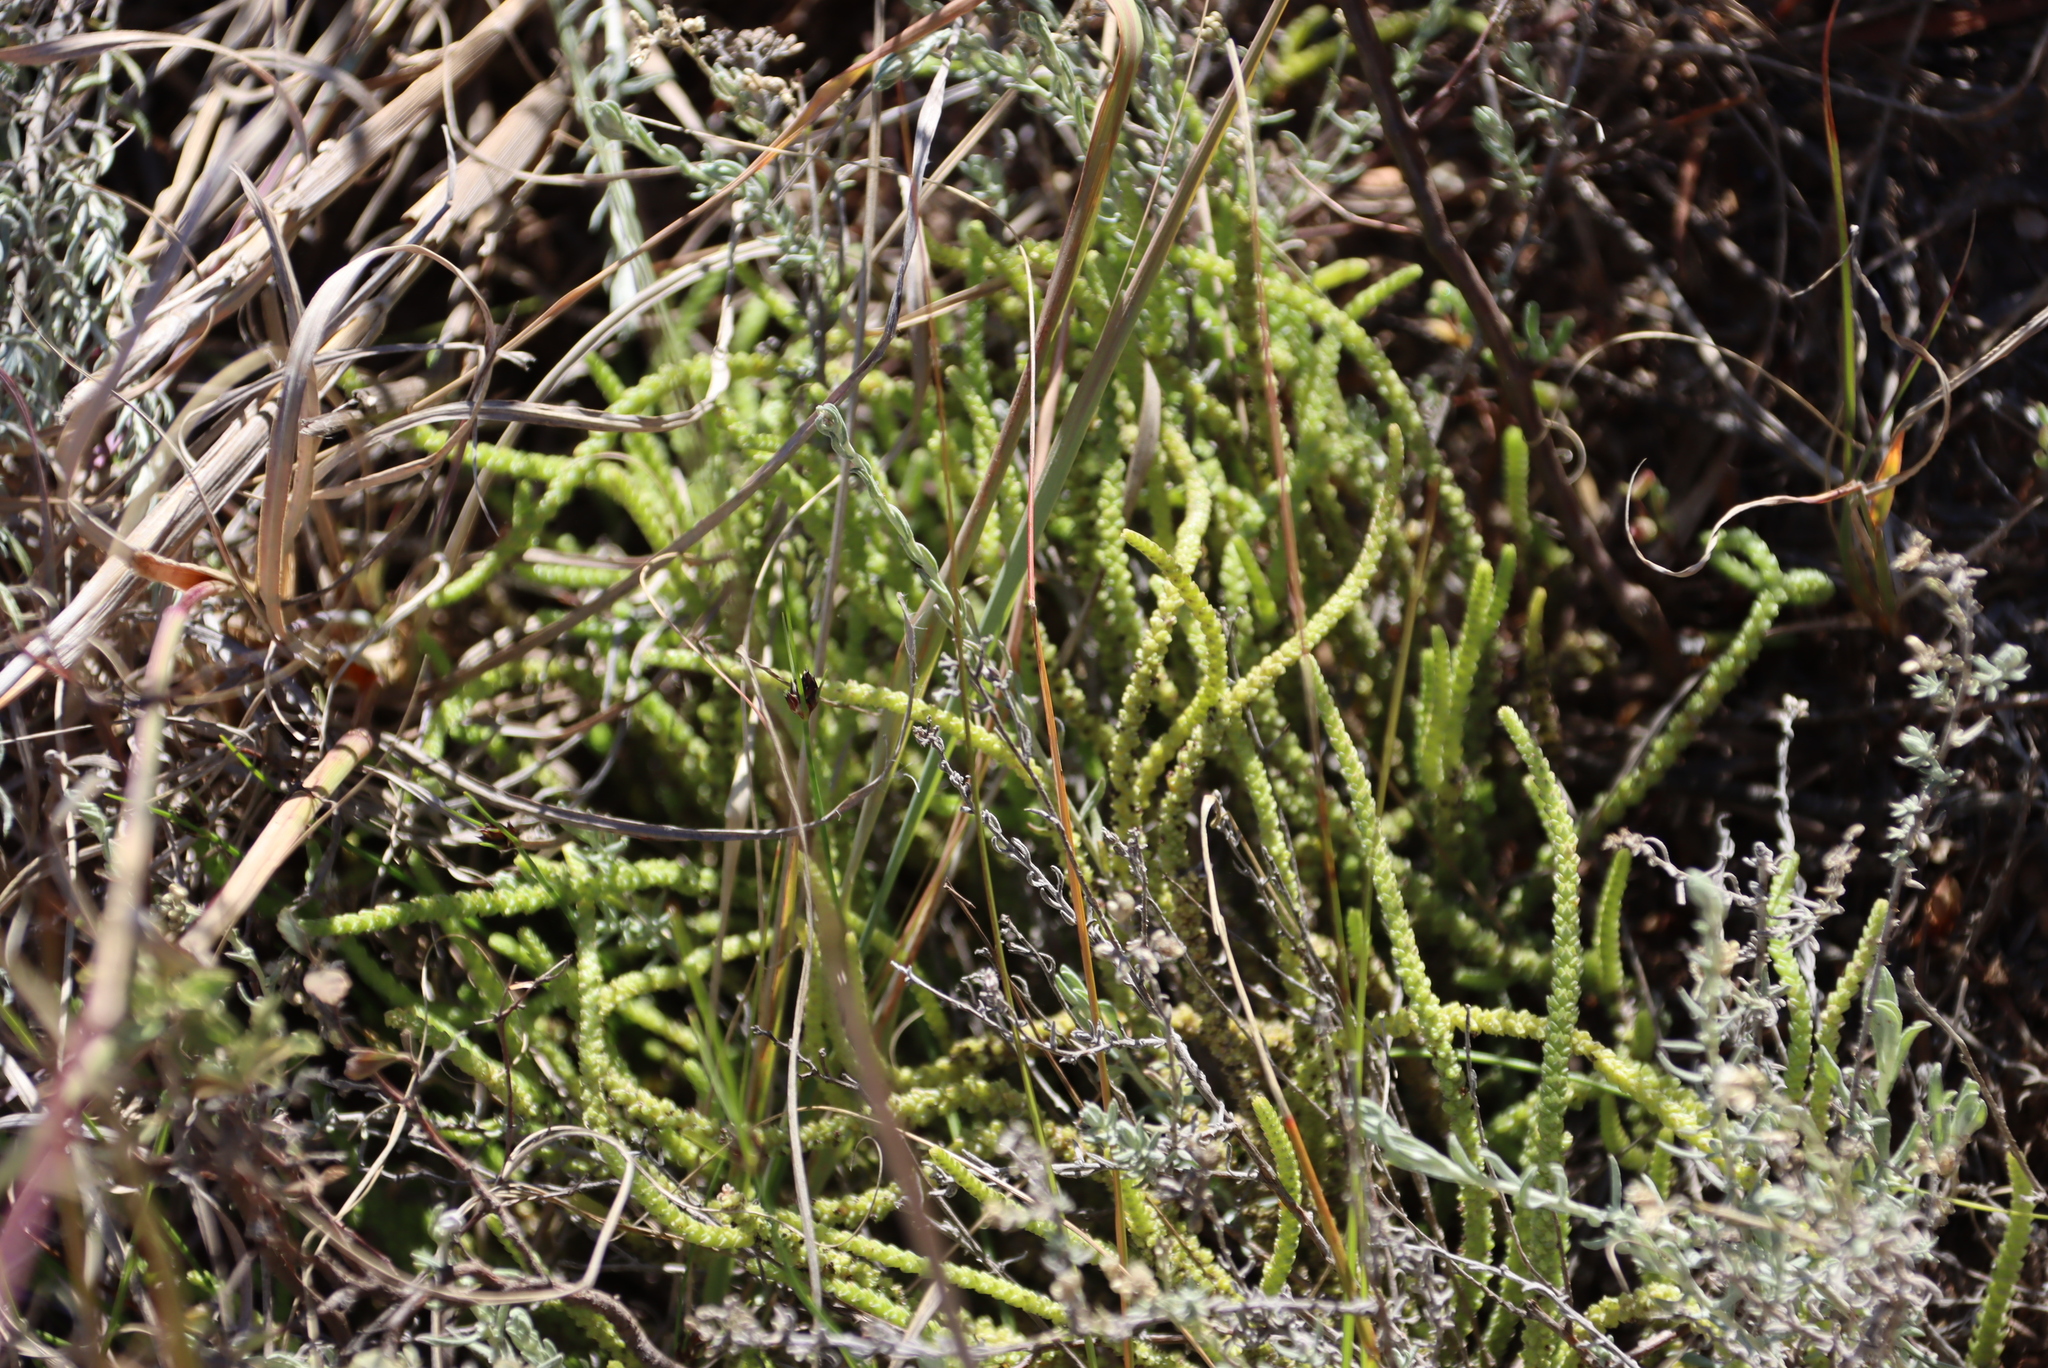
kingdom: Plantae
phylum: Tracheophyta
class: Magnoliopsida
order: Saxifragales
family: Crassulaceae
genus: Crassula
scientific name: Crassula muscosa
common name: Toy-cypress
